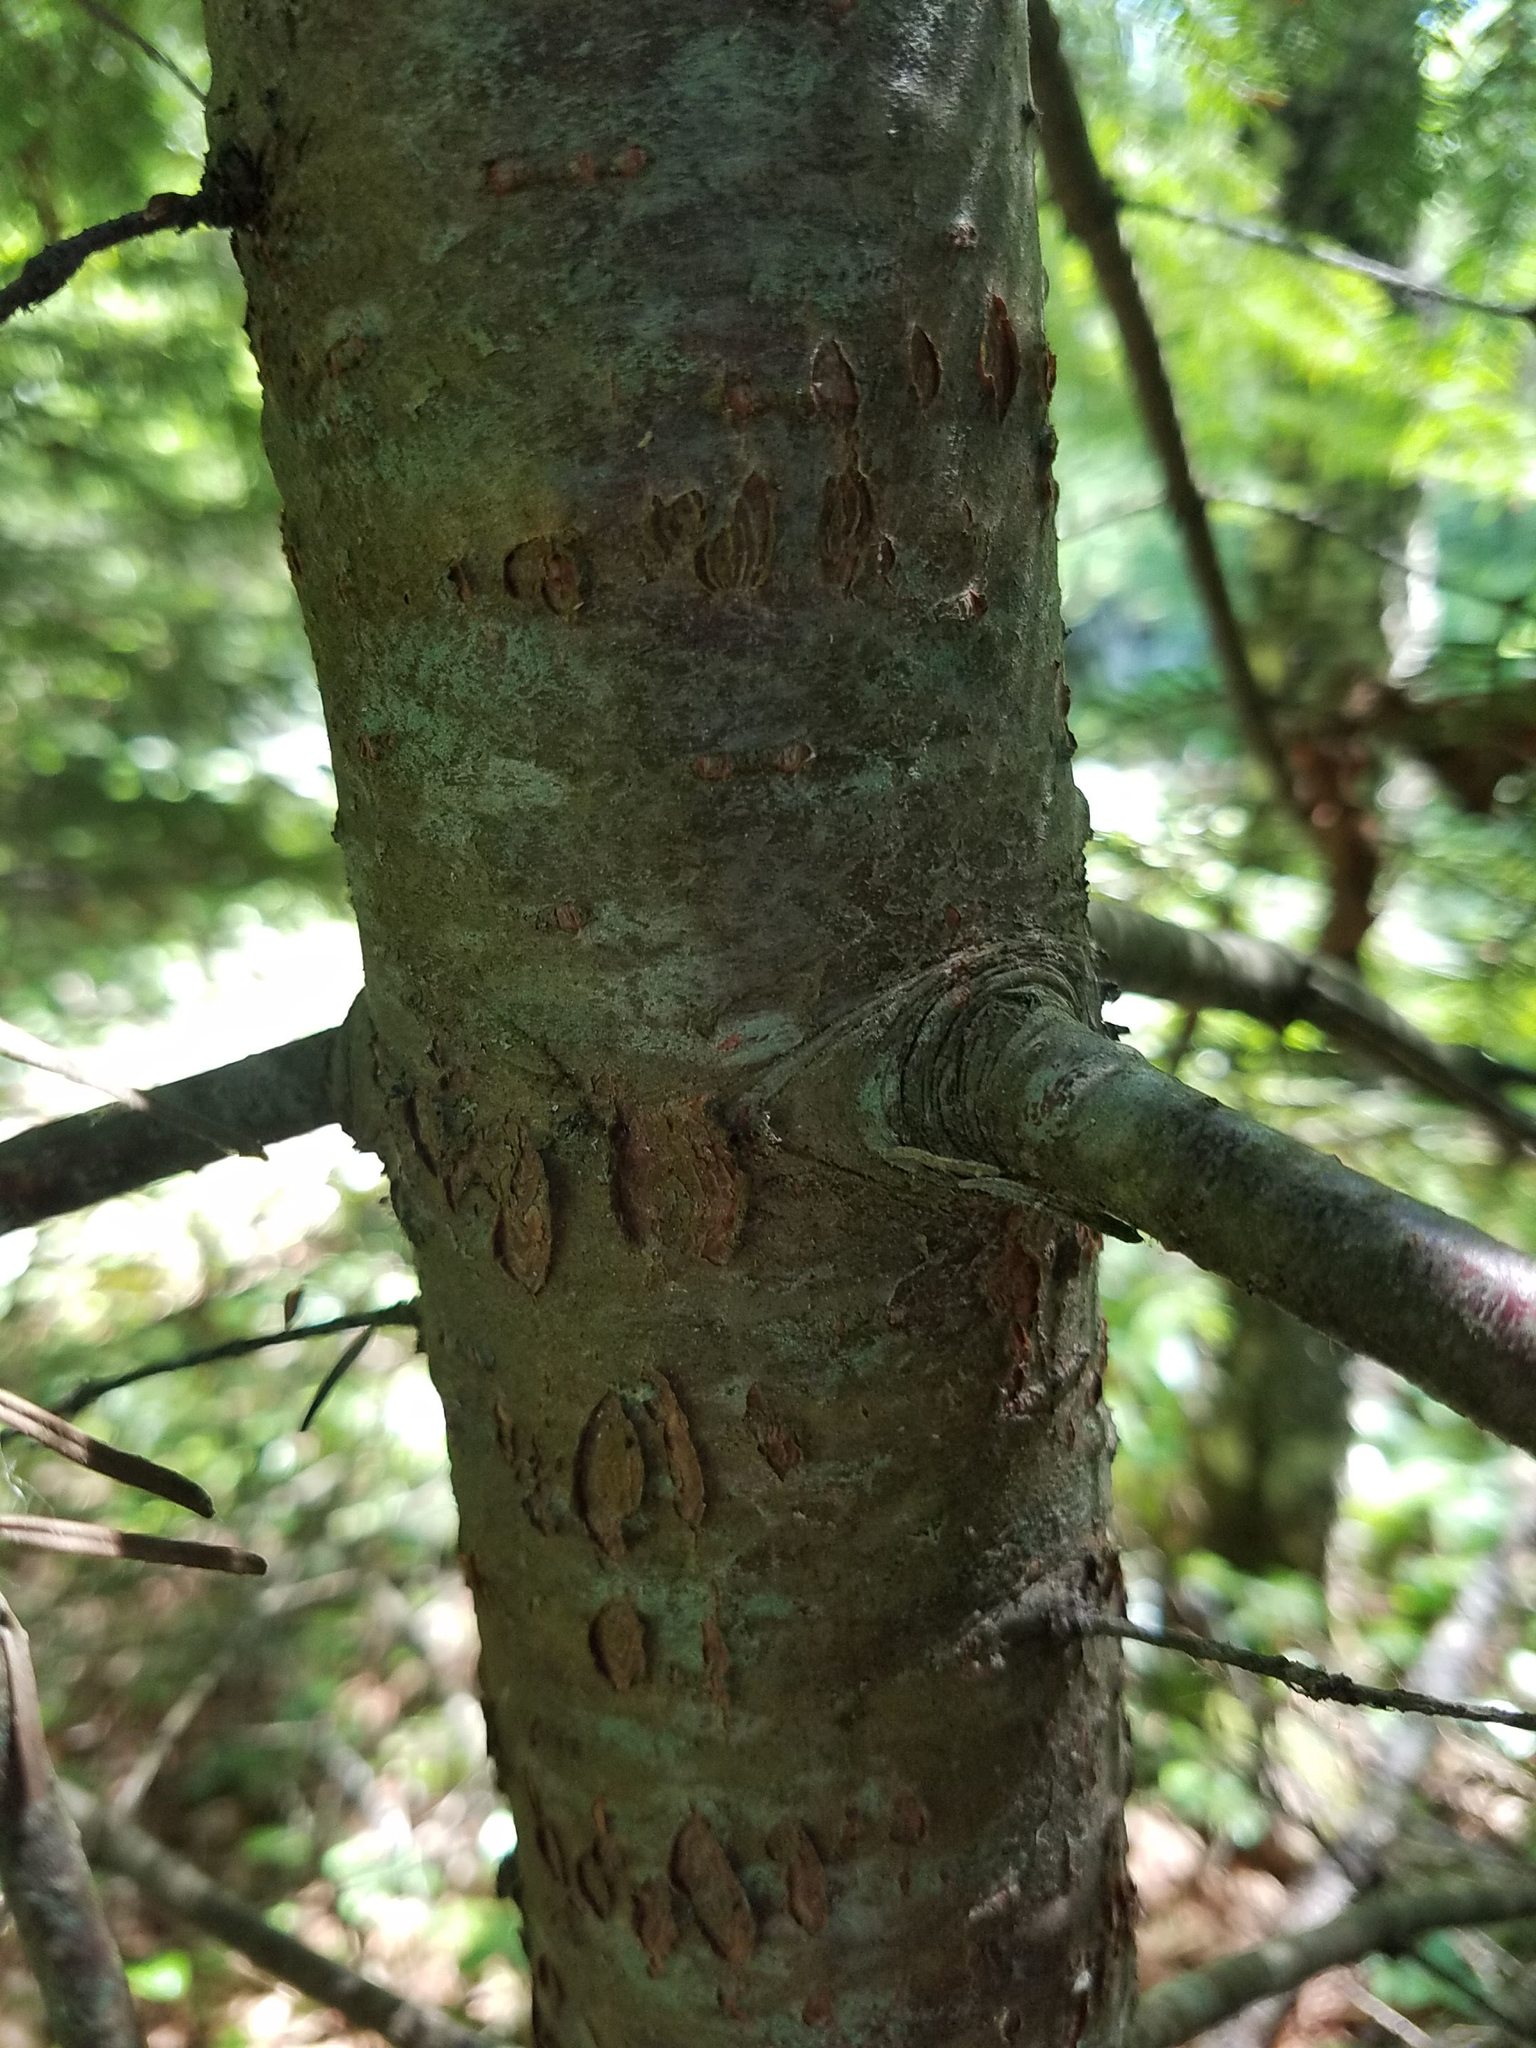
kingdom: Plantae
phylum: Tracheophyta
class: Pinopsida
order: Pinales
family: Pinaceae
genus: Abies
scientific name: Abies balsamea
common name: Balsam fir
